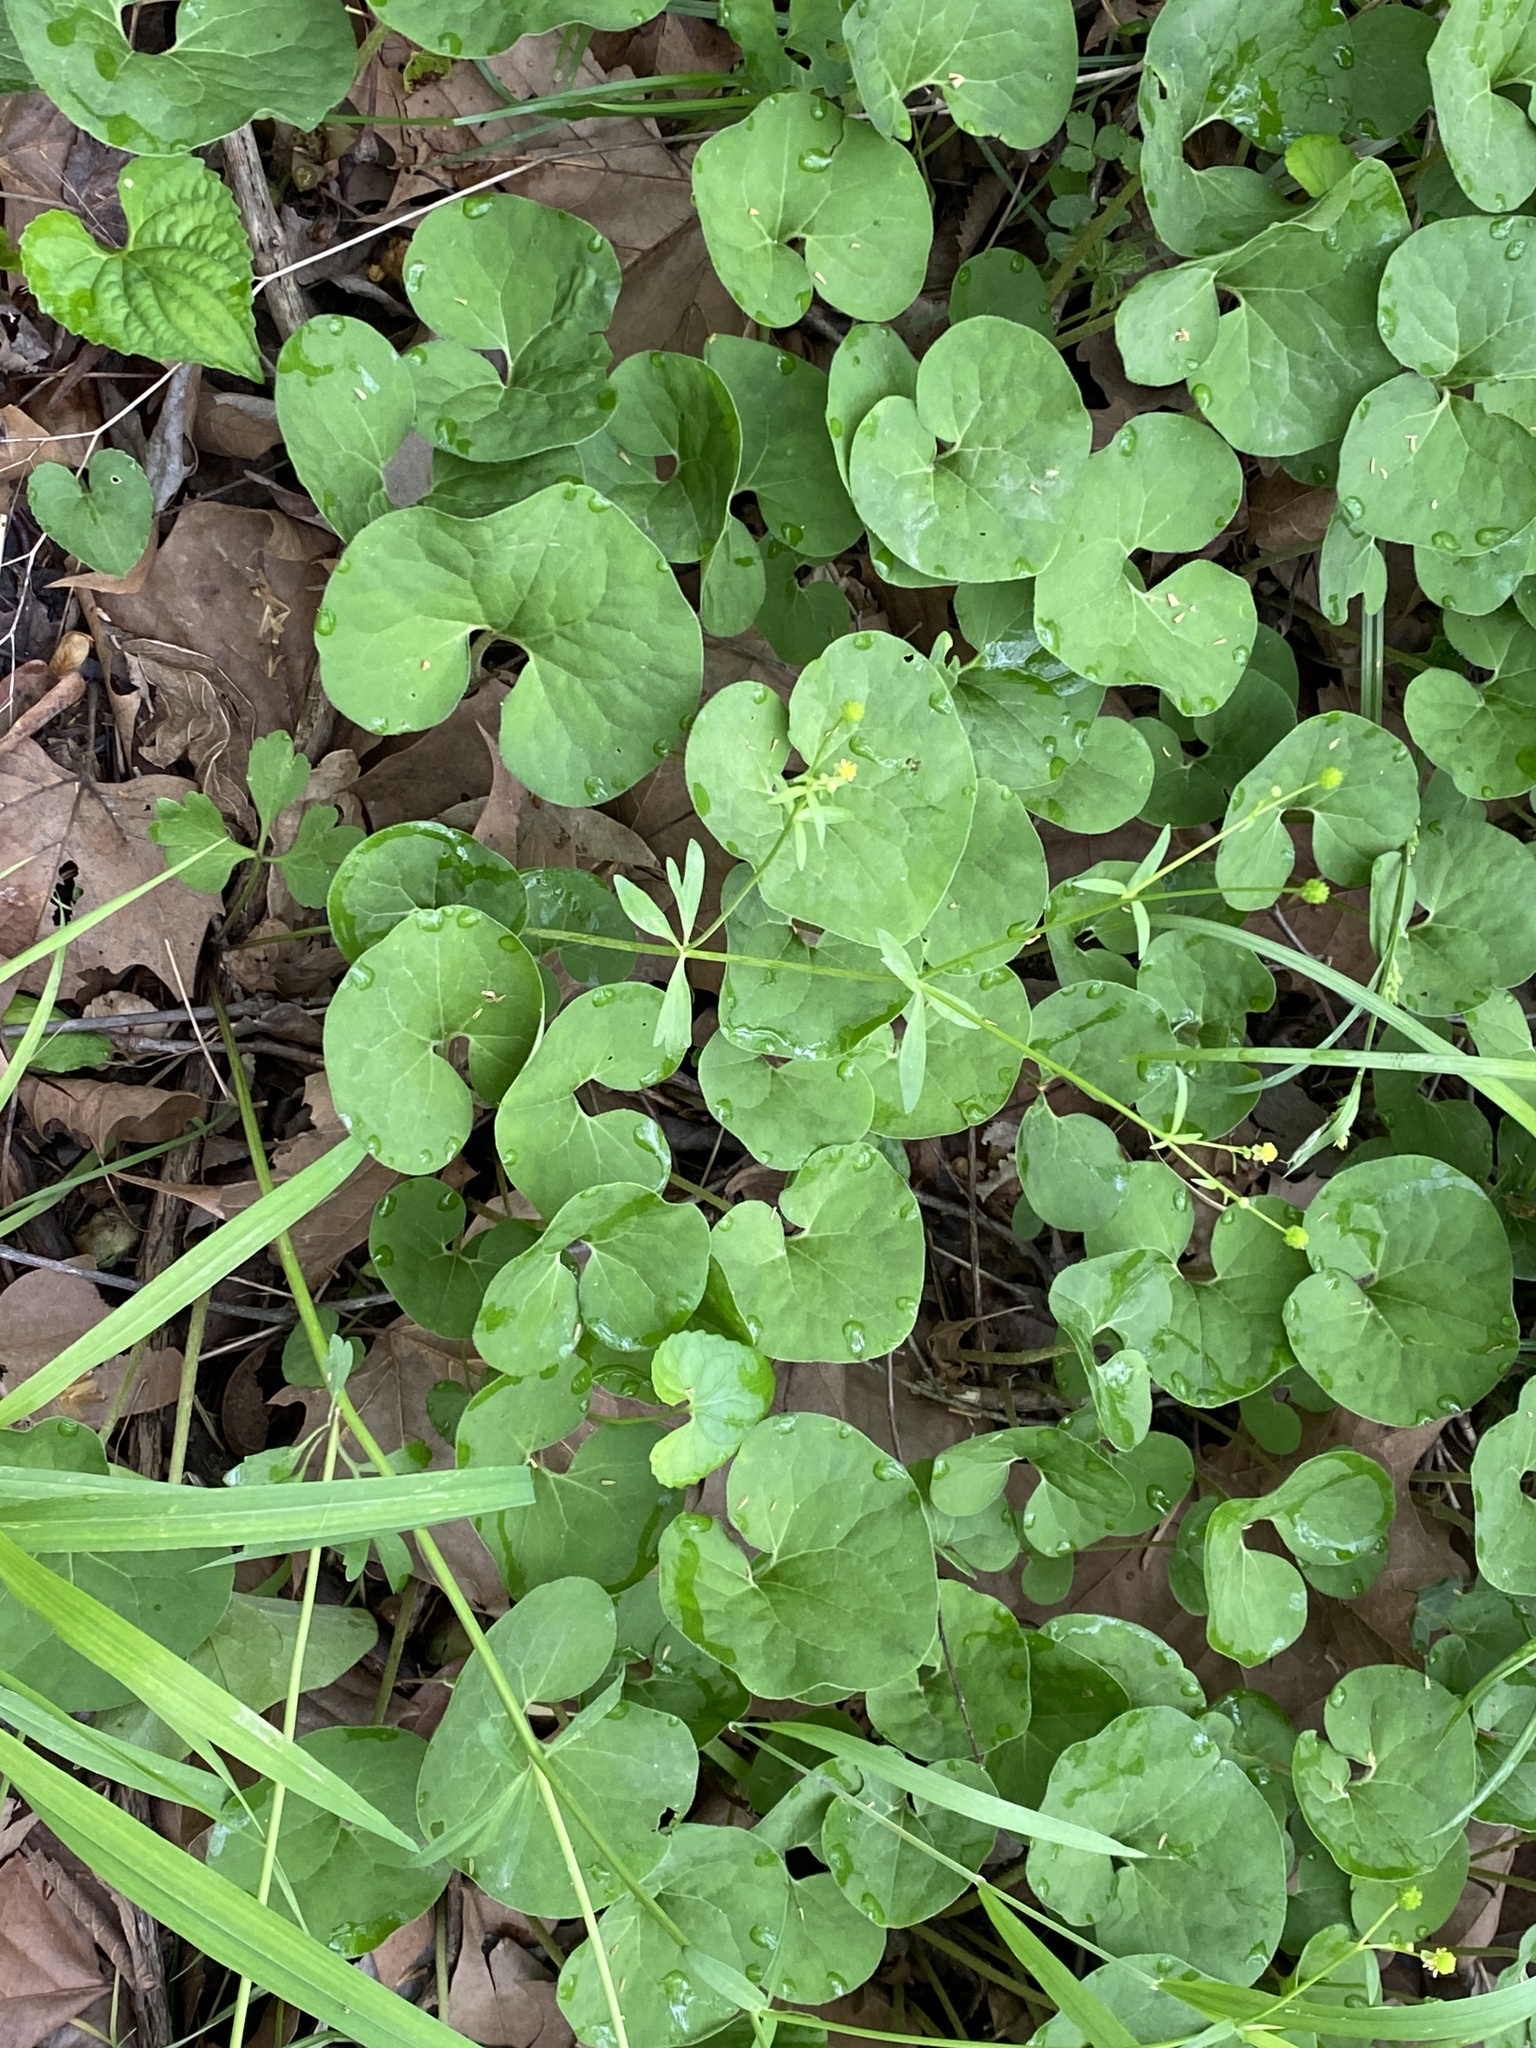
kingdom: Plantae
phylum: Tracheophyta
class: Magnoliopsida
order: Piperales
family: Aristolochiaceae
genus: Asarum
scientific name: Asarum canadense
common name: Wild ginger
